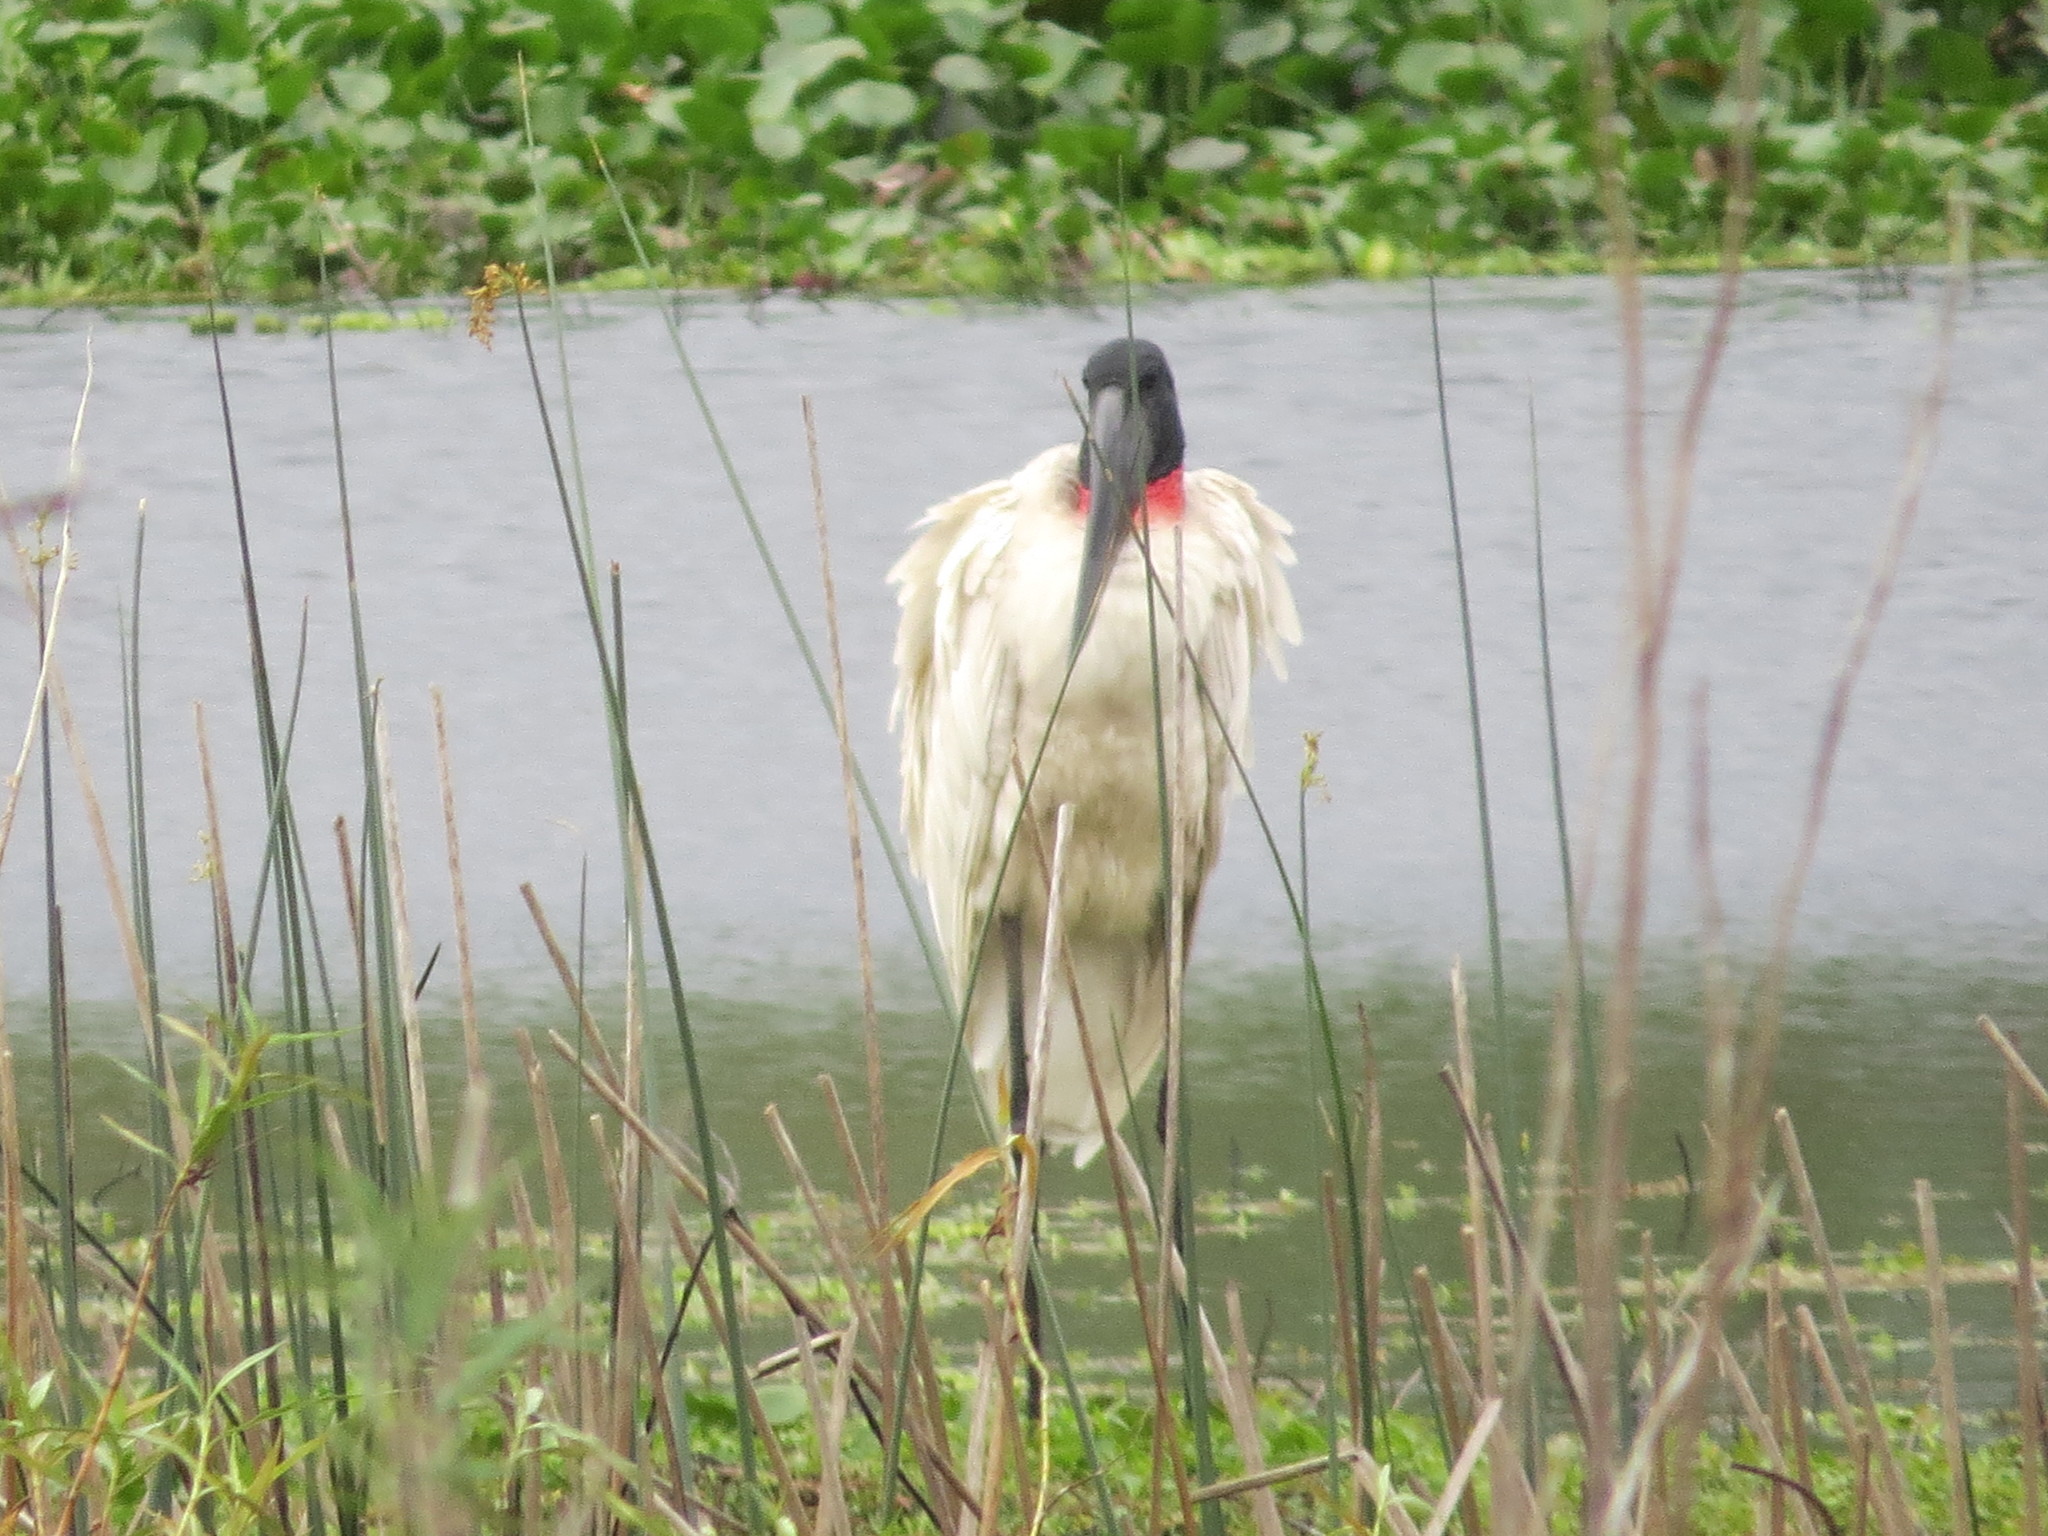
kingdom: Animalia
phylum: Chordata
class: Aves
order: Ciconiiformes
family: Ciconiidae
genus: Jabiru
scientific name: Jabiru mycteria
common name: Jabiru
